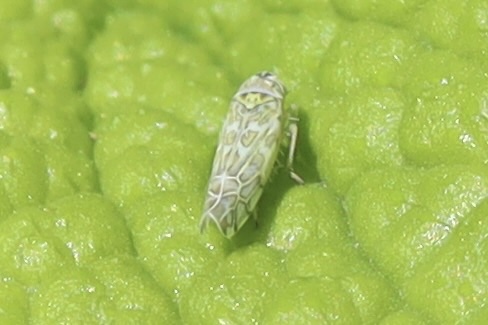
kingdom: Animalia
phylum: Arthropoda
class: Insecta
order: Hemiptera
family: Cicadellidae
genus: Eupteryx
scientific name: Eupteryx decemnotata
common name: Ligurian leafhopper
